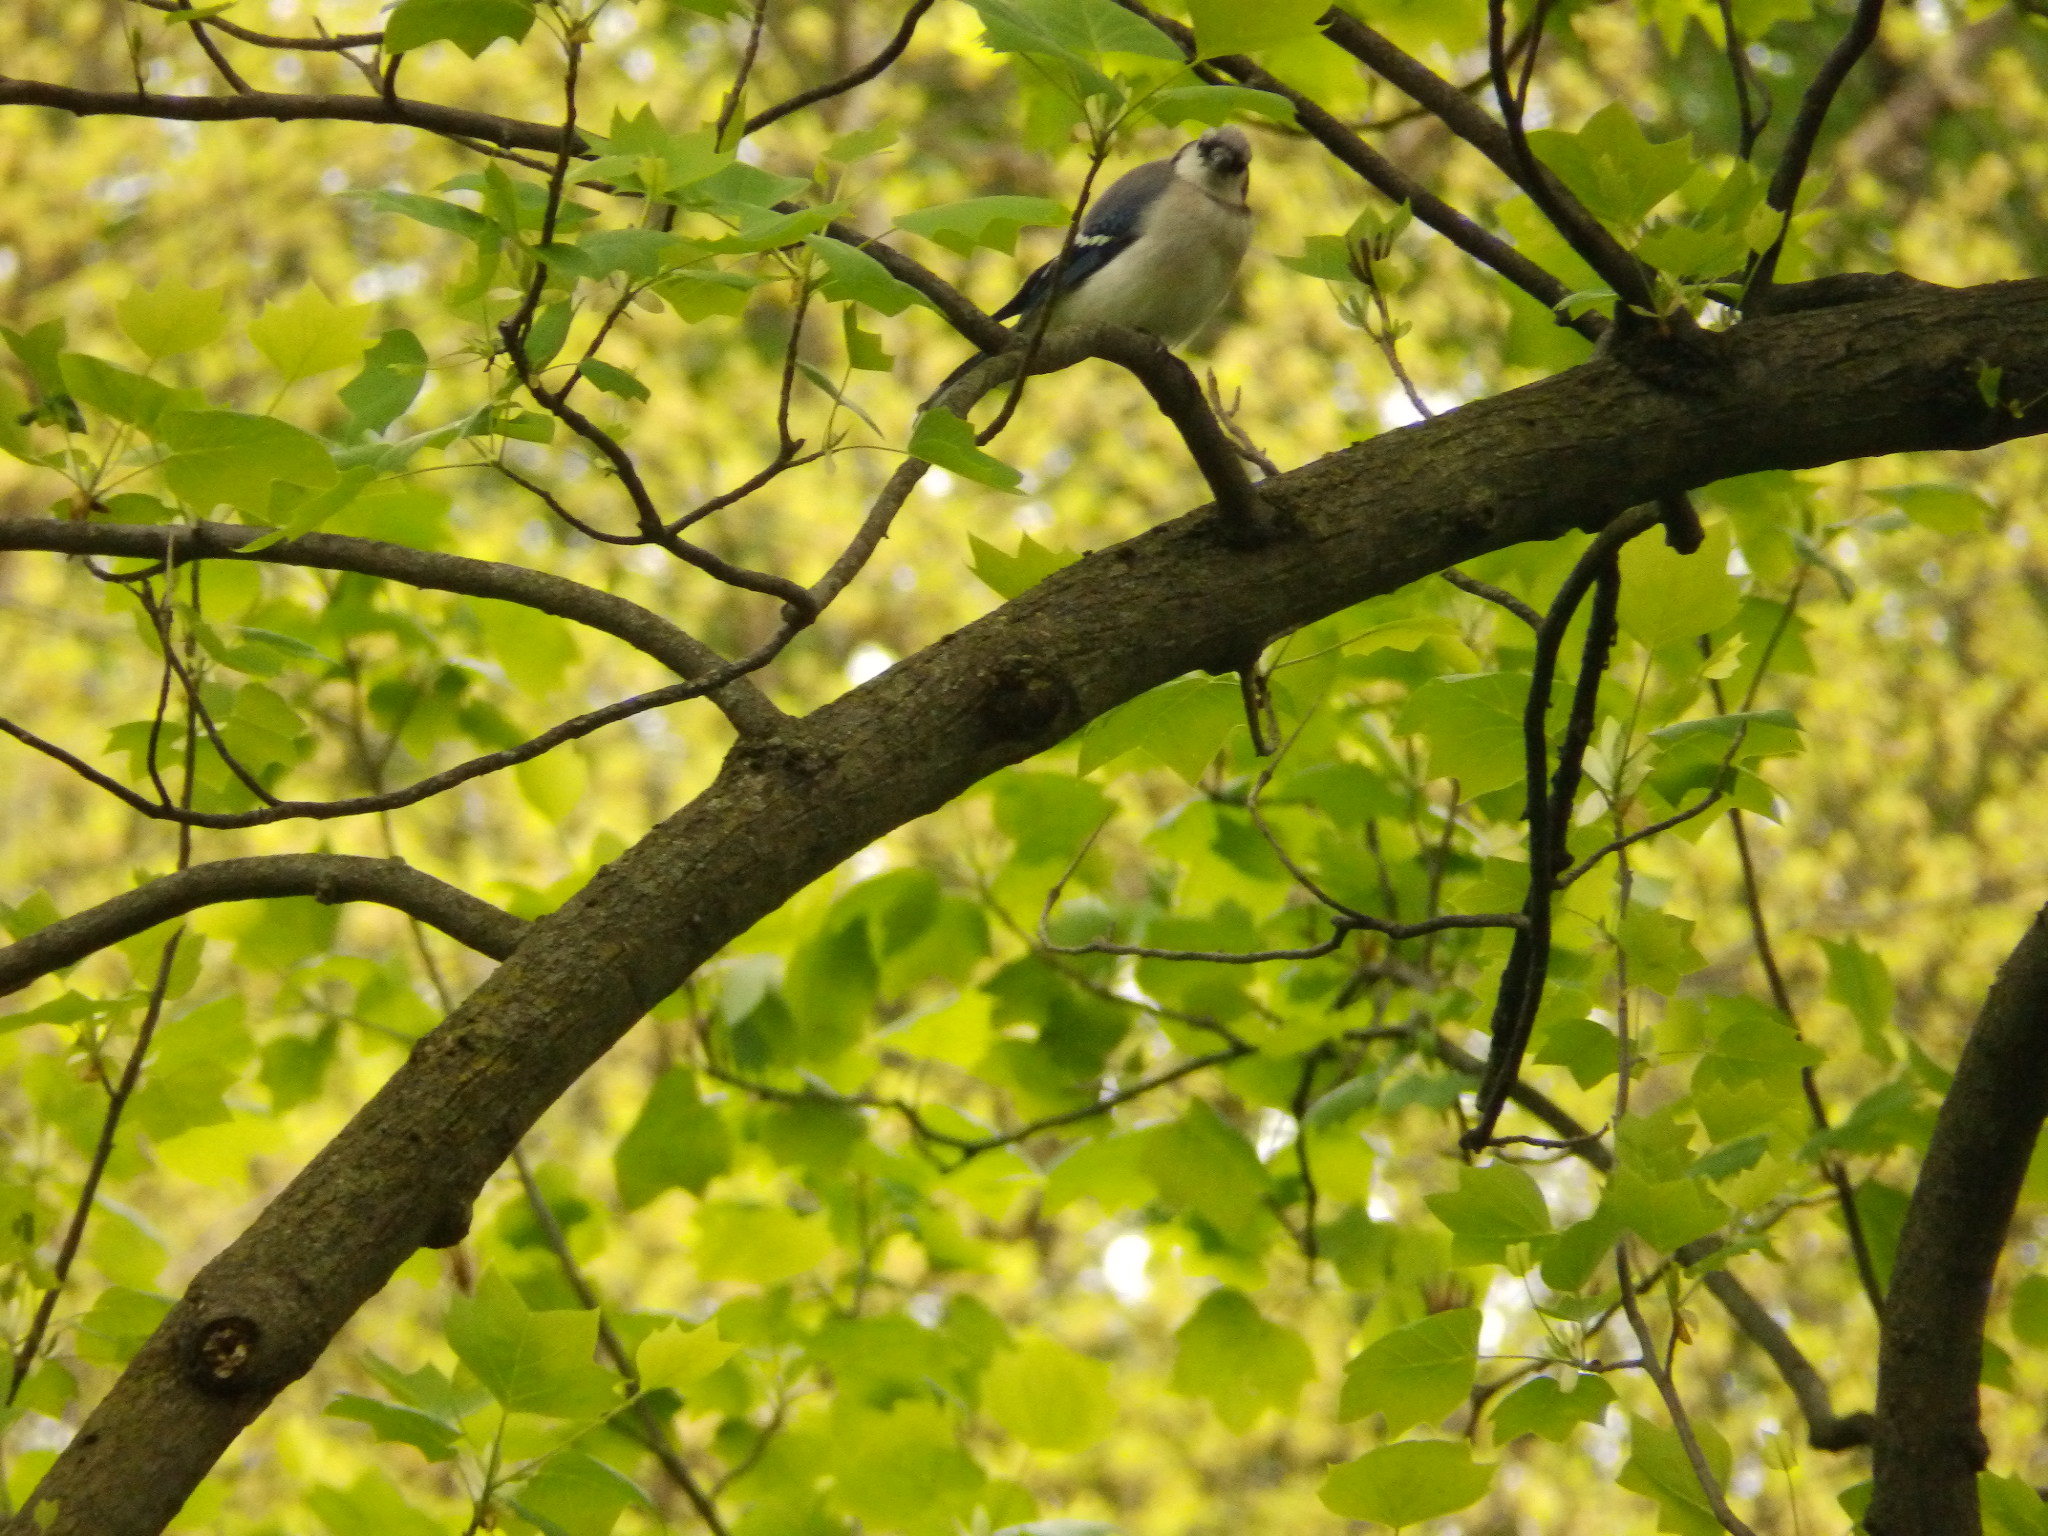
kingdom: Animalia
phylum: Chordata
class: Aves
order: Passeriformes
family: Corvidae
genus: Cyanocitta
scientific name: Cyanocitta cristata
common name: Blue jay
